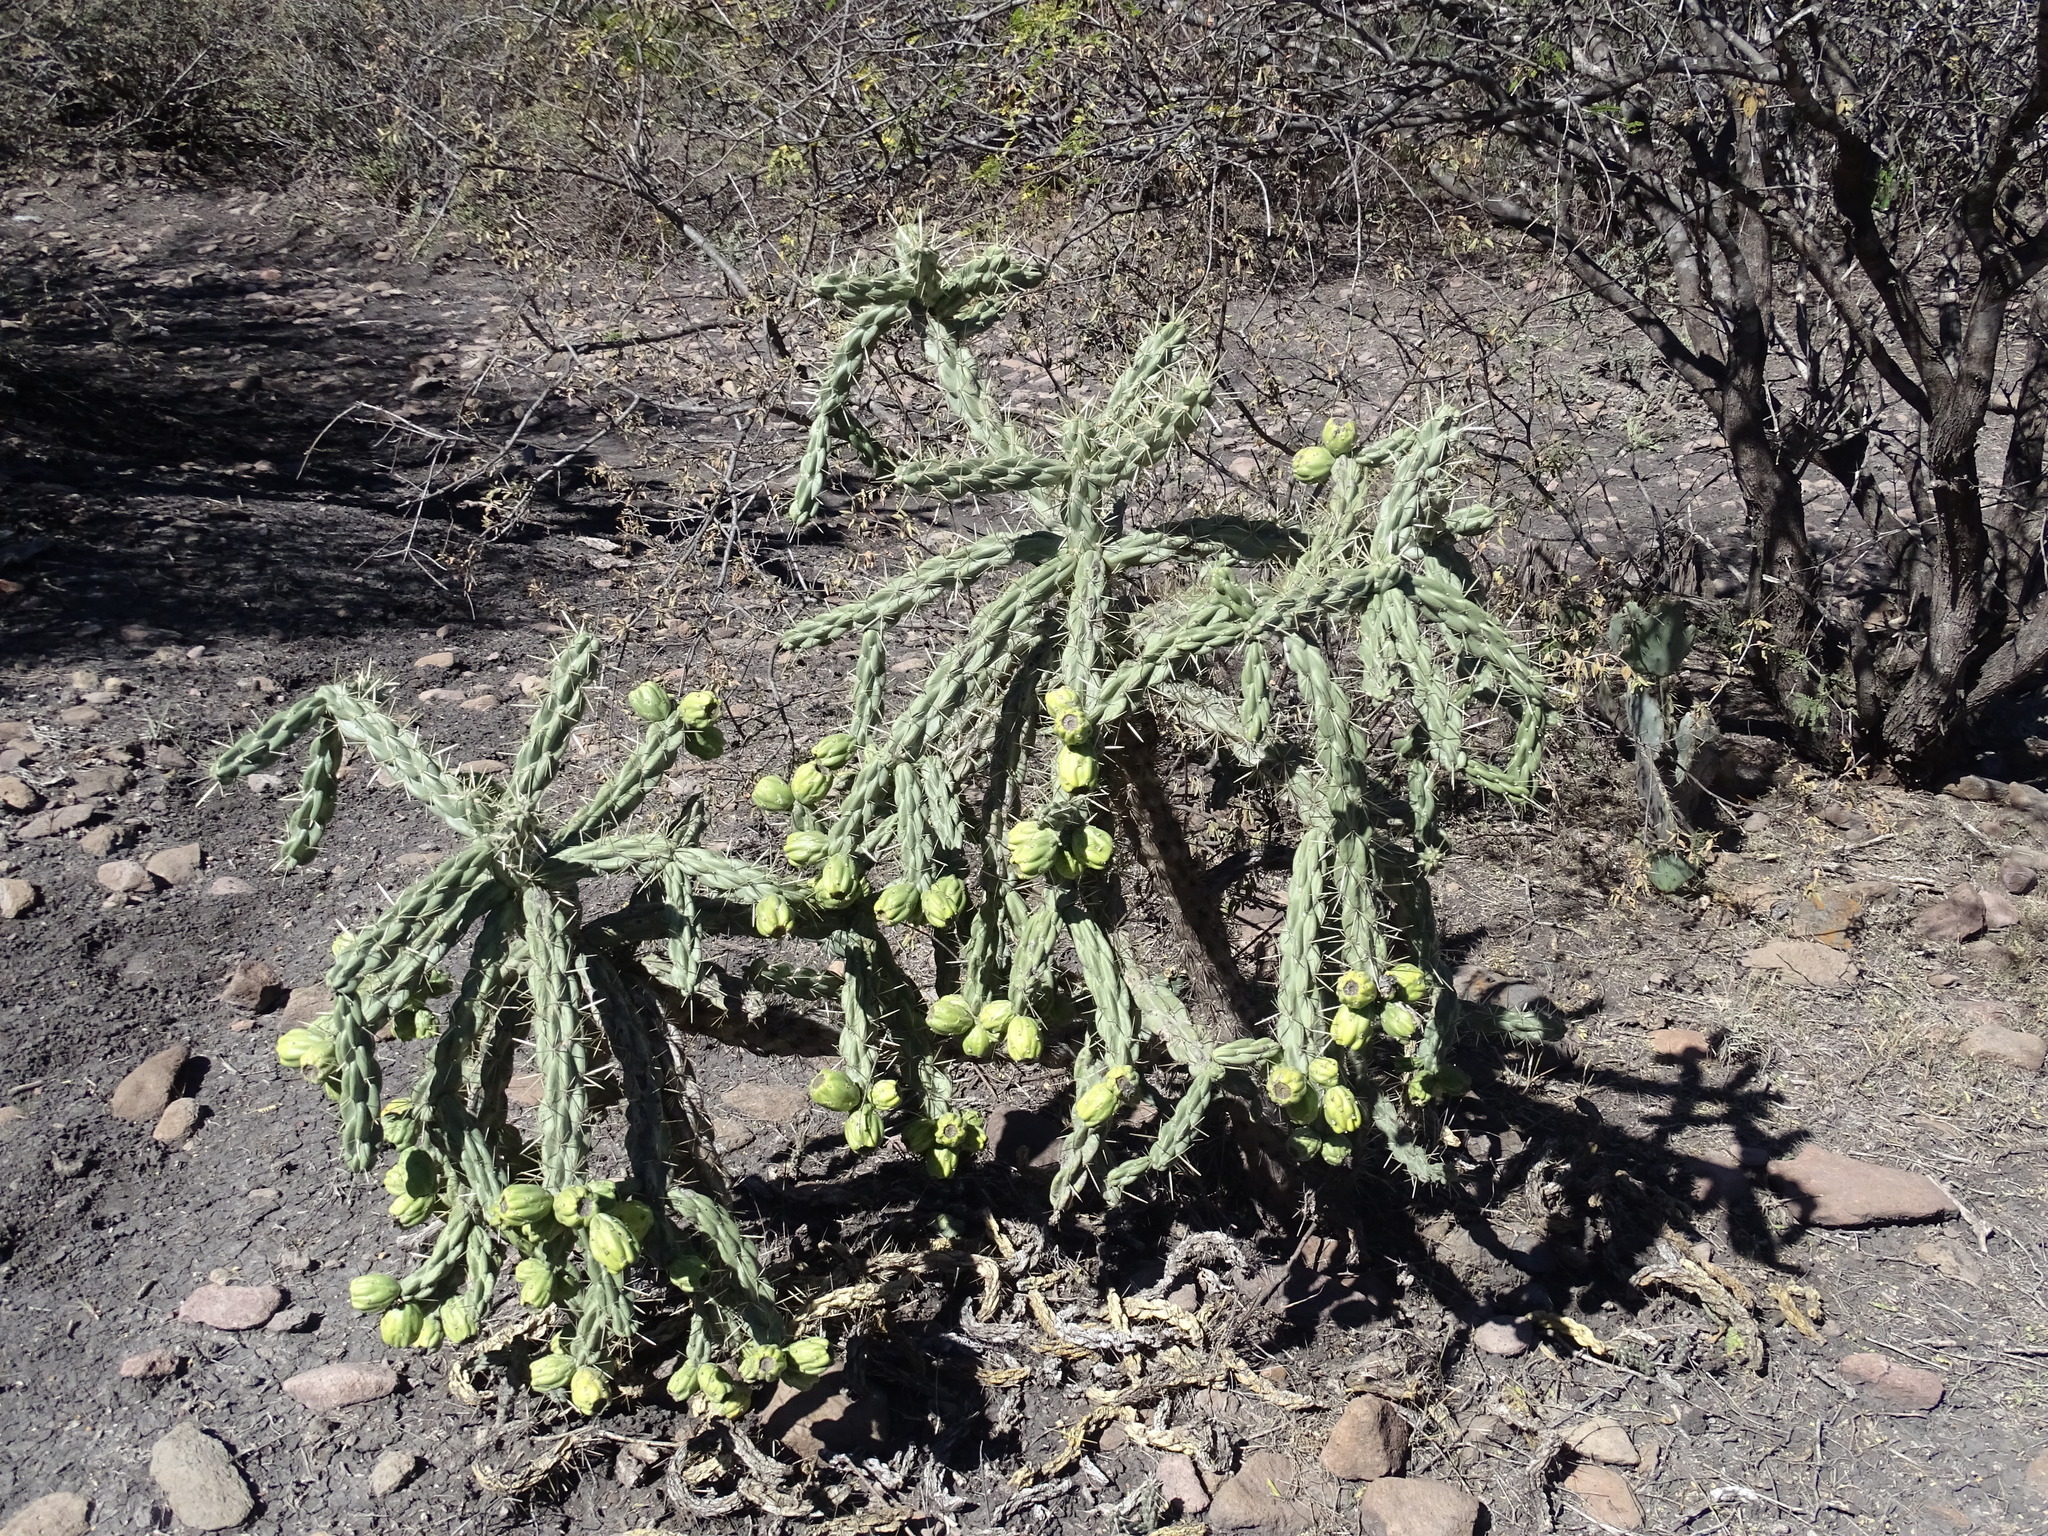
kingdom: Plantae
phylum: Tracheophyta
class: Magnoliopsida
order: Caryophyllales
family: Cactaceae
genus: Cylindropuntia
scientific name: Cylindropuntia imbricata
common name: Candelabrum cactus
